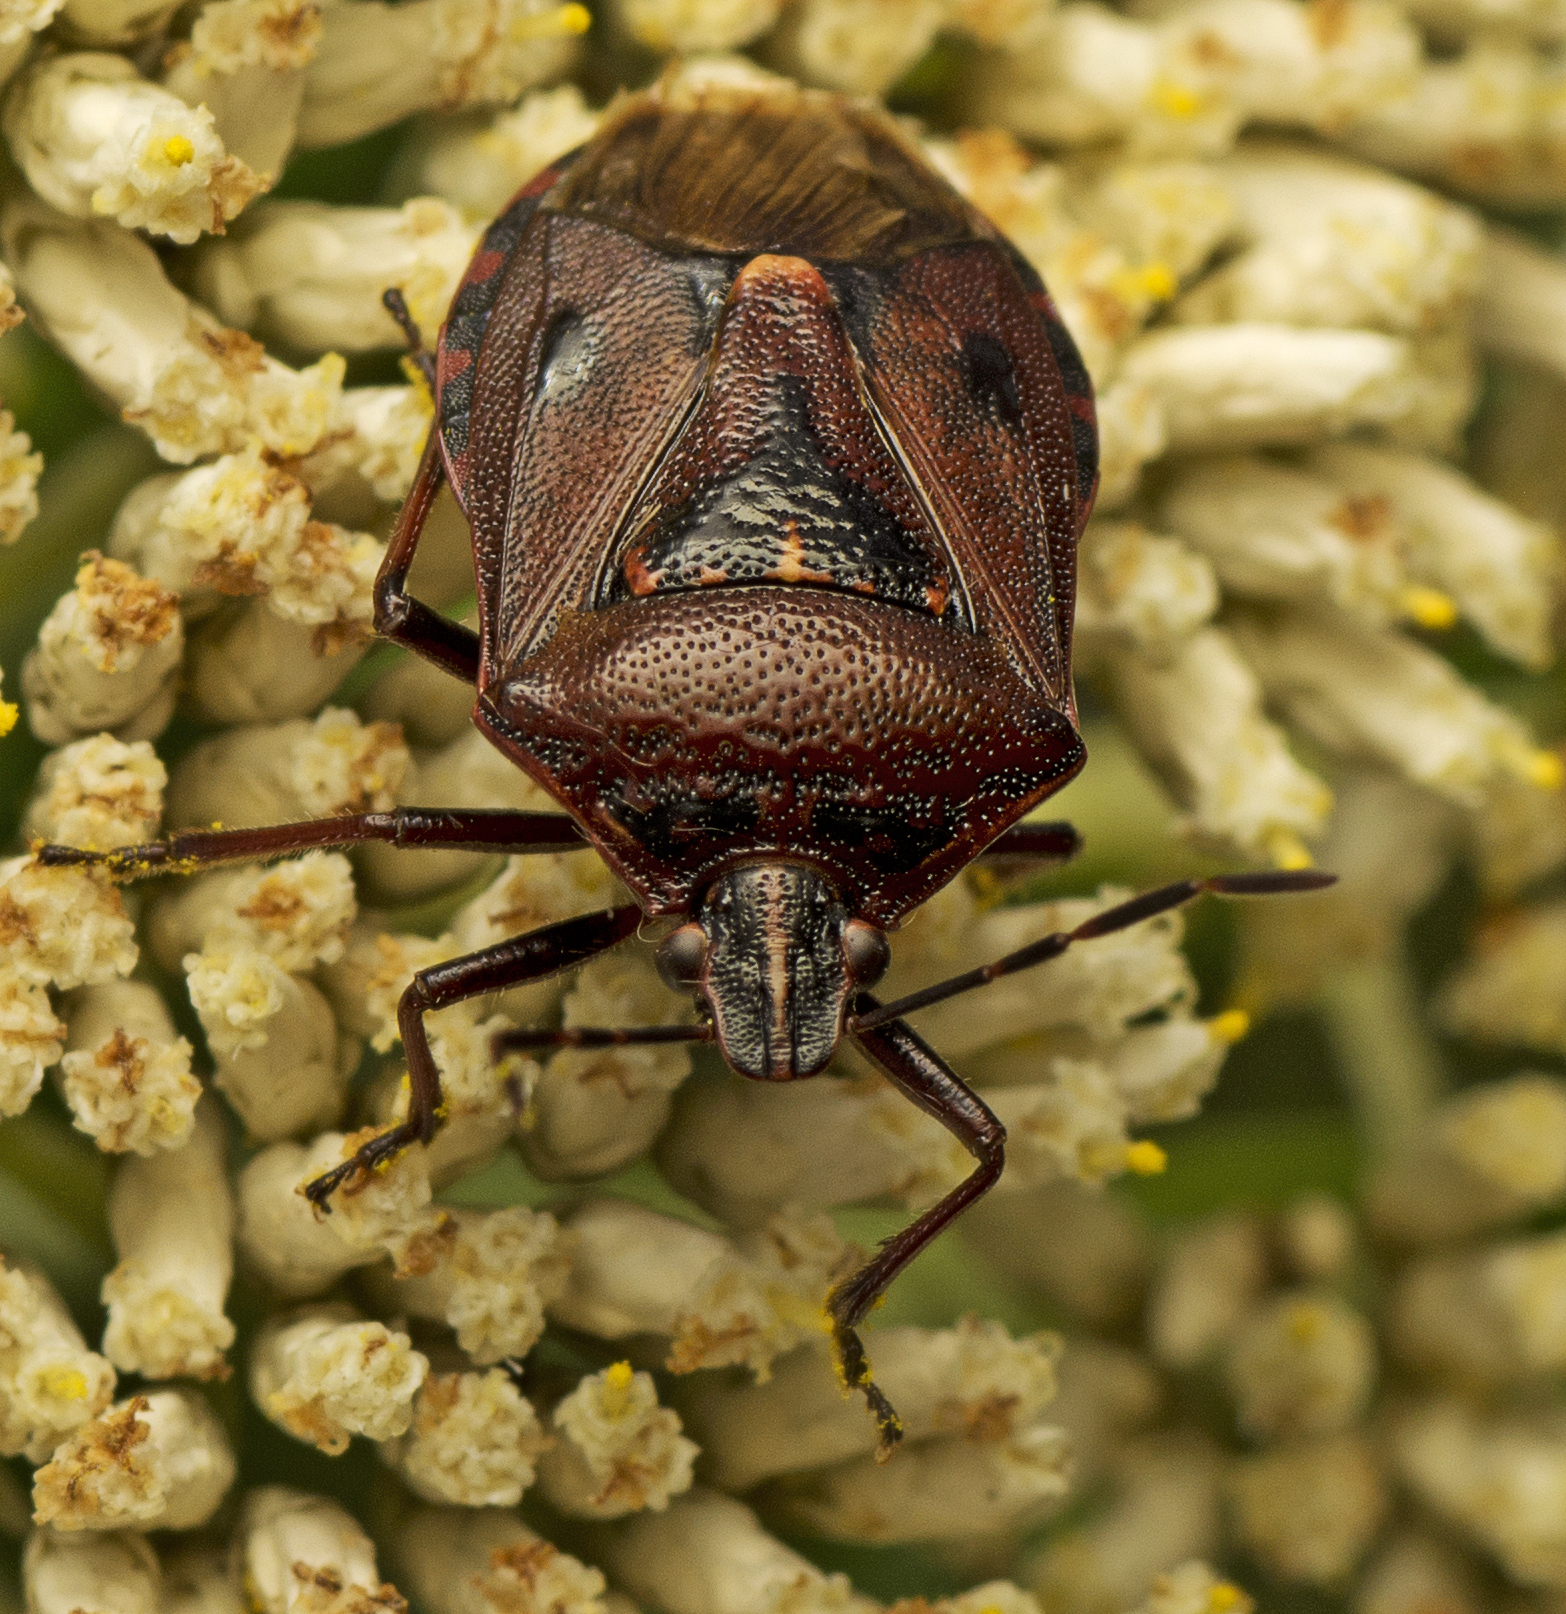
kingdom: Animalia
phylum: Arthropoda
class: Insecta
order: Hemiptera
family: Pentatomidae
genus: Cermatulus
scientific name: Cermatulus nasalis
